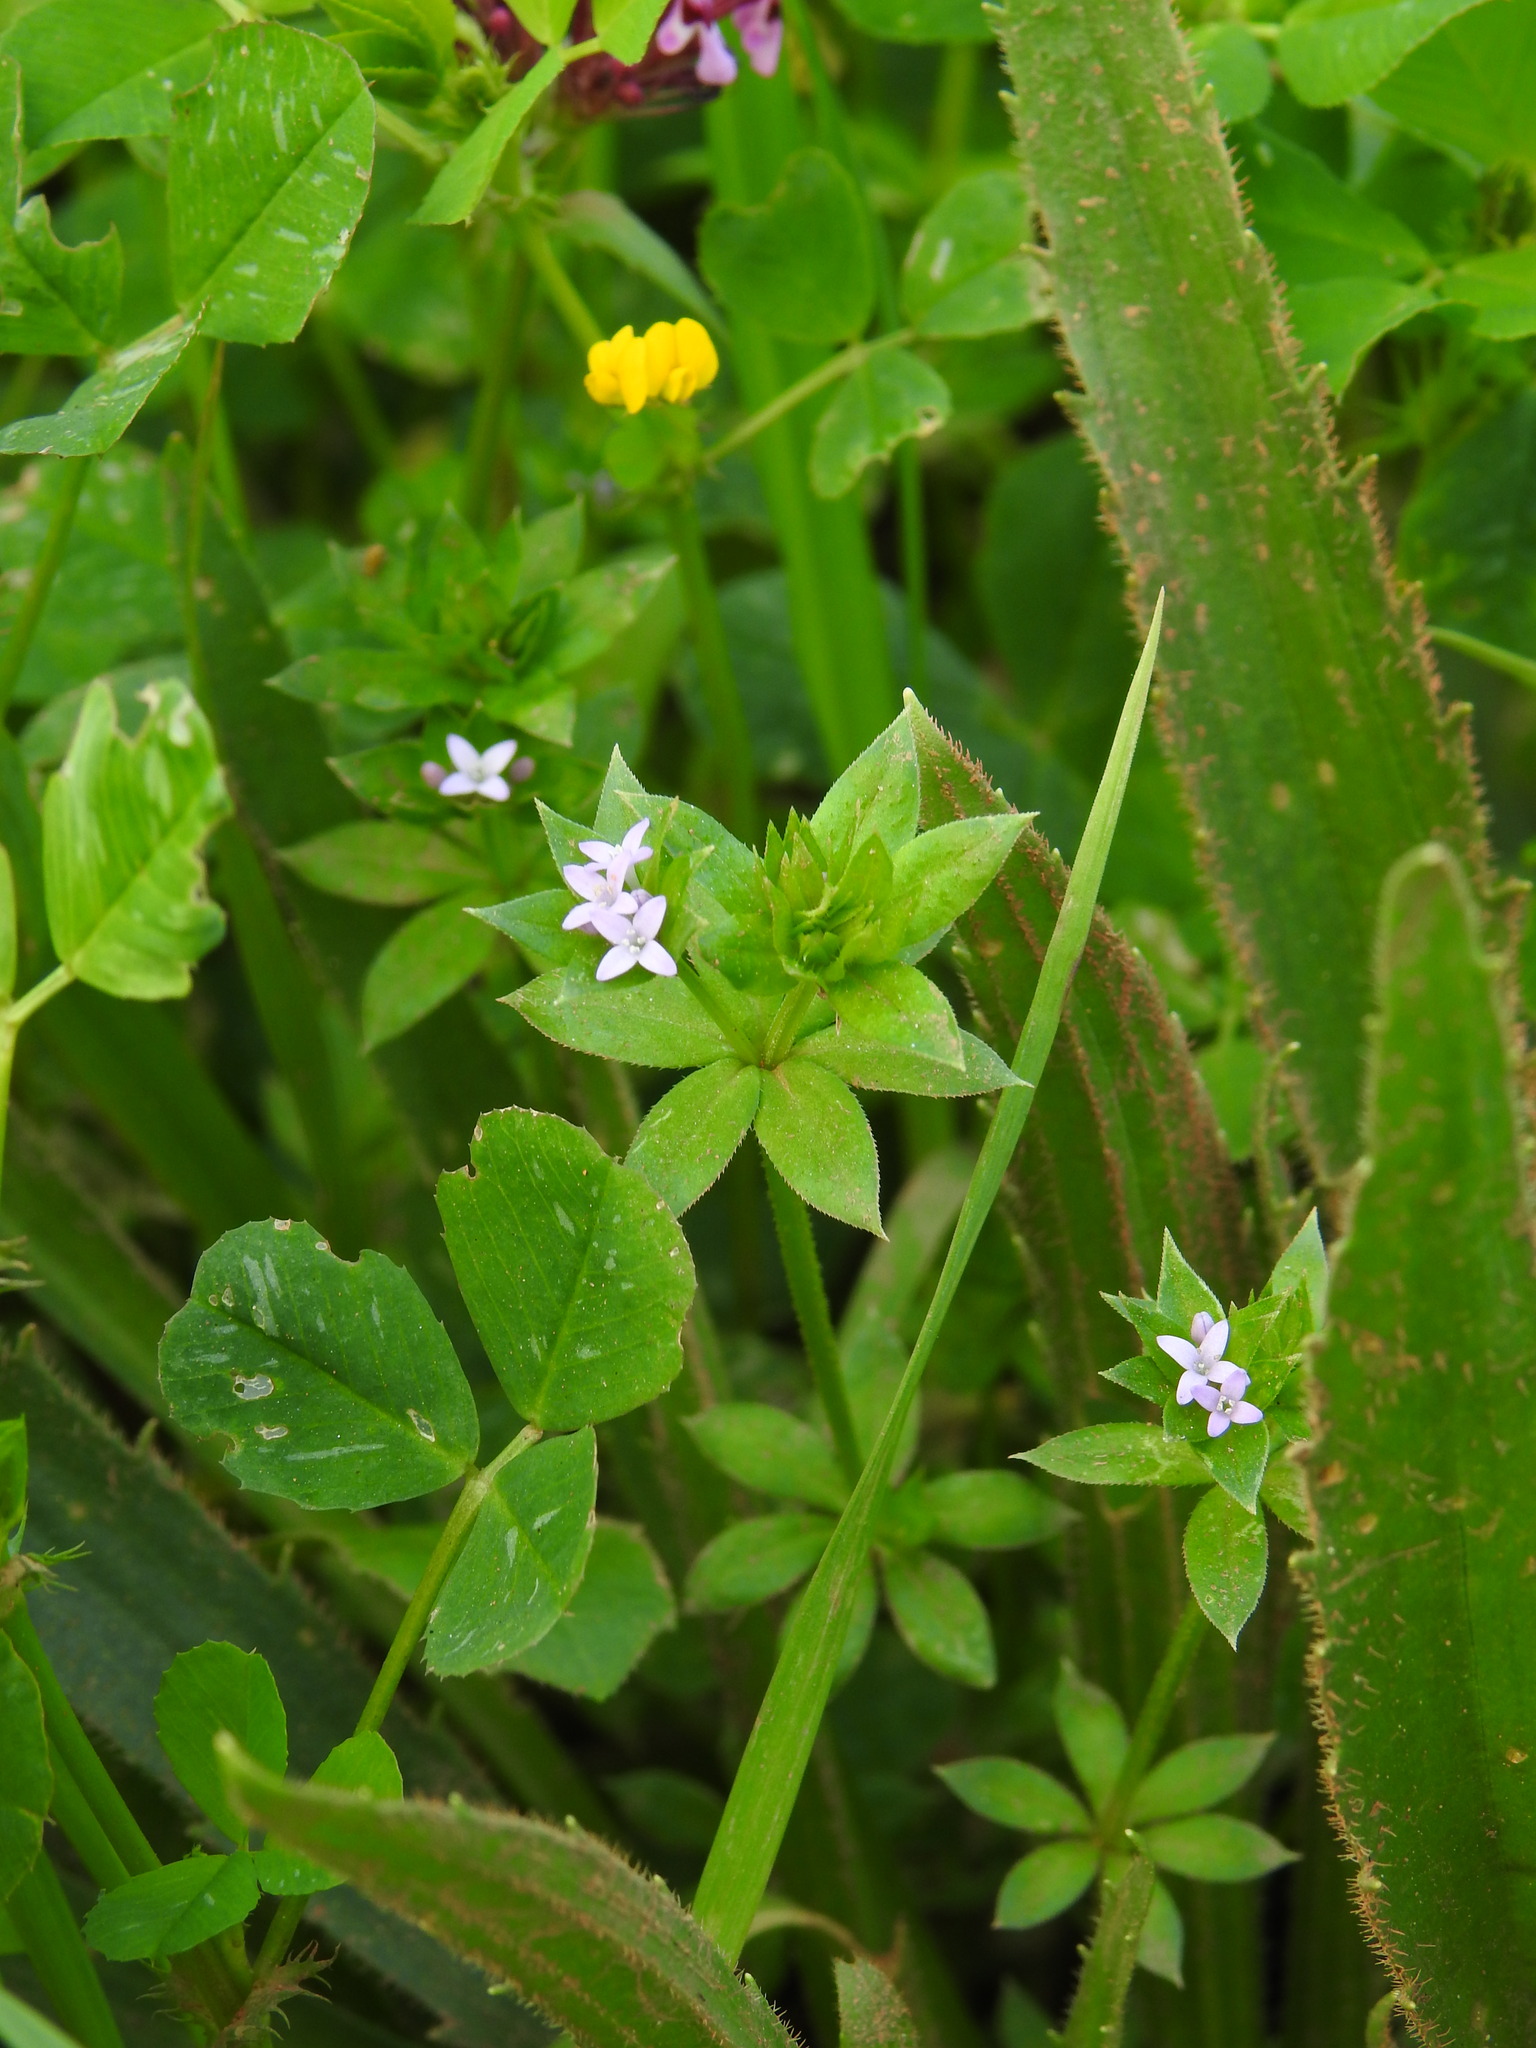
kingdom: Plantae
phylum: Tracheophyta
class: Magnoliopsida
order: Gentianales
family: Rubiaceae
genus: Sherardia
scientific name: Sherardia arvensis
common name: Field madder
